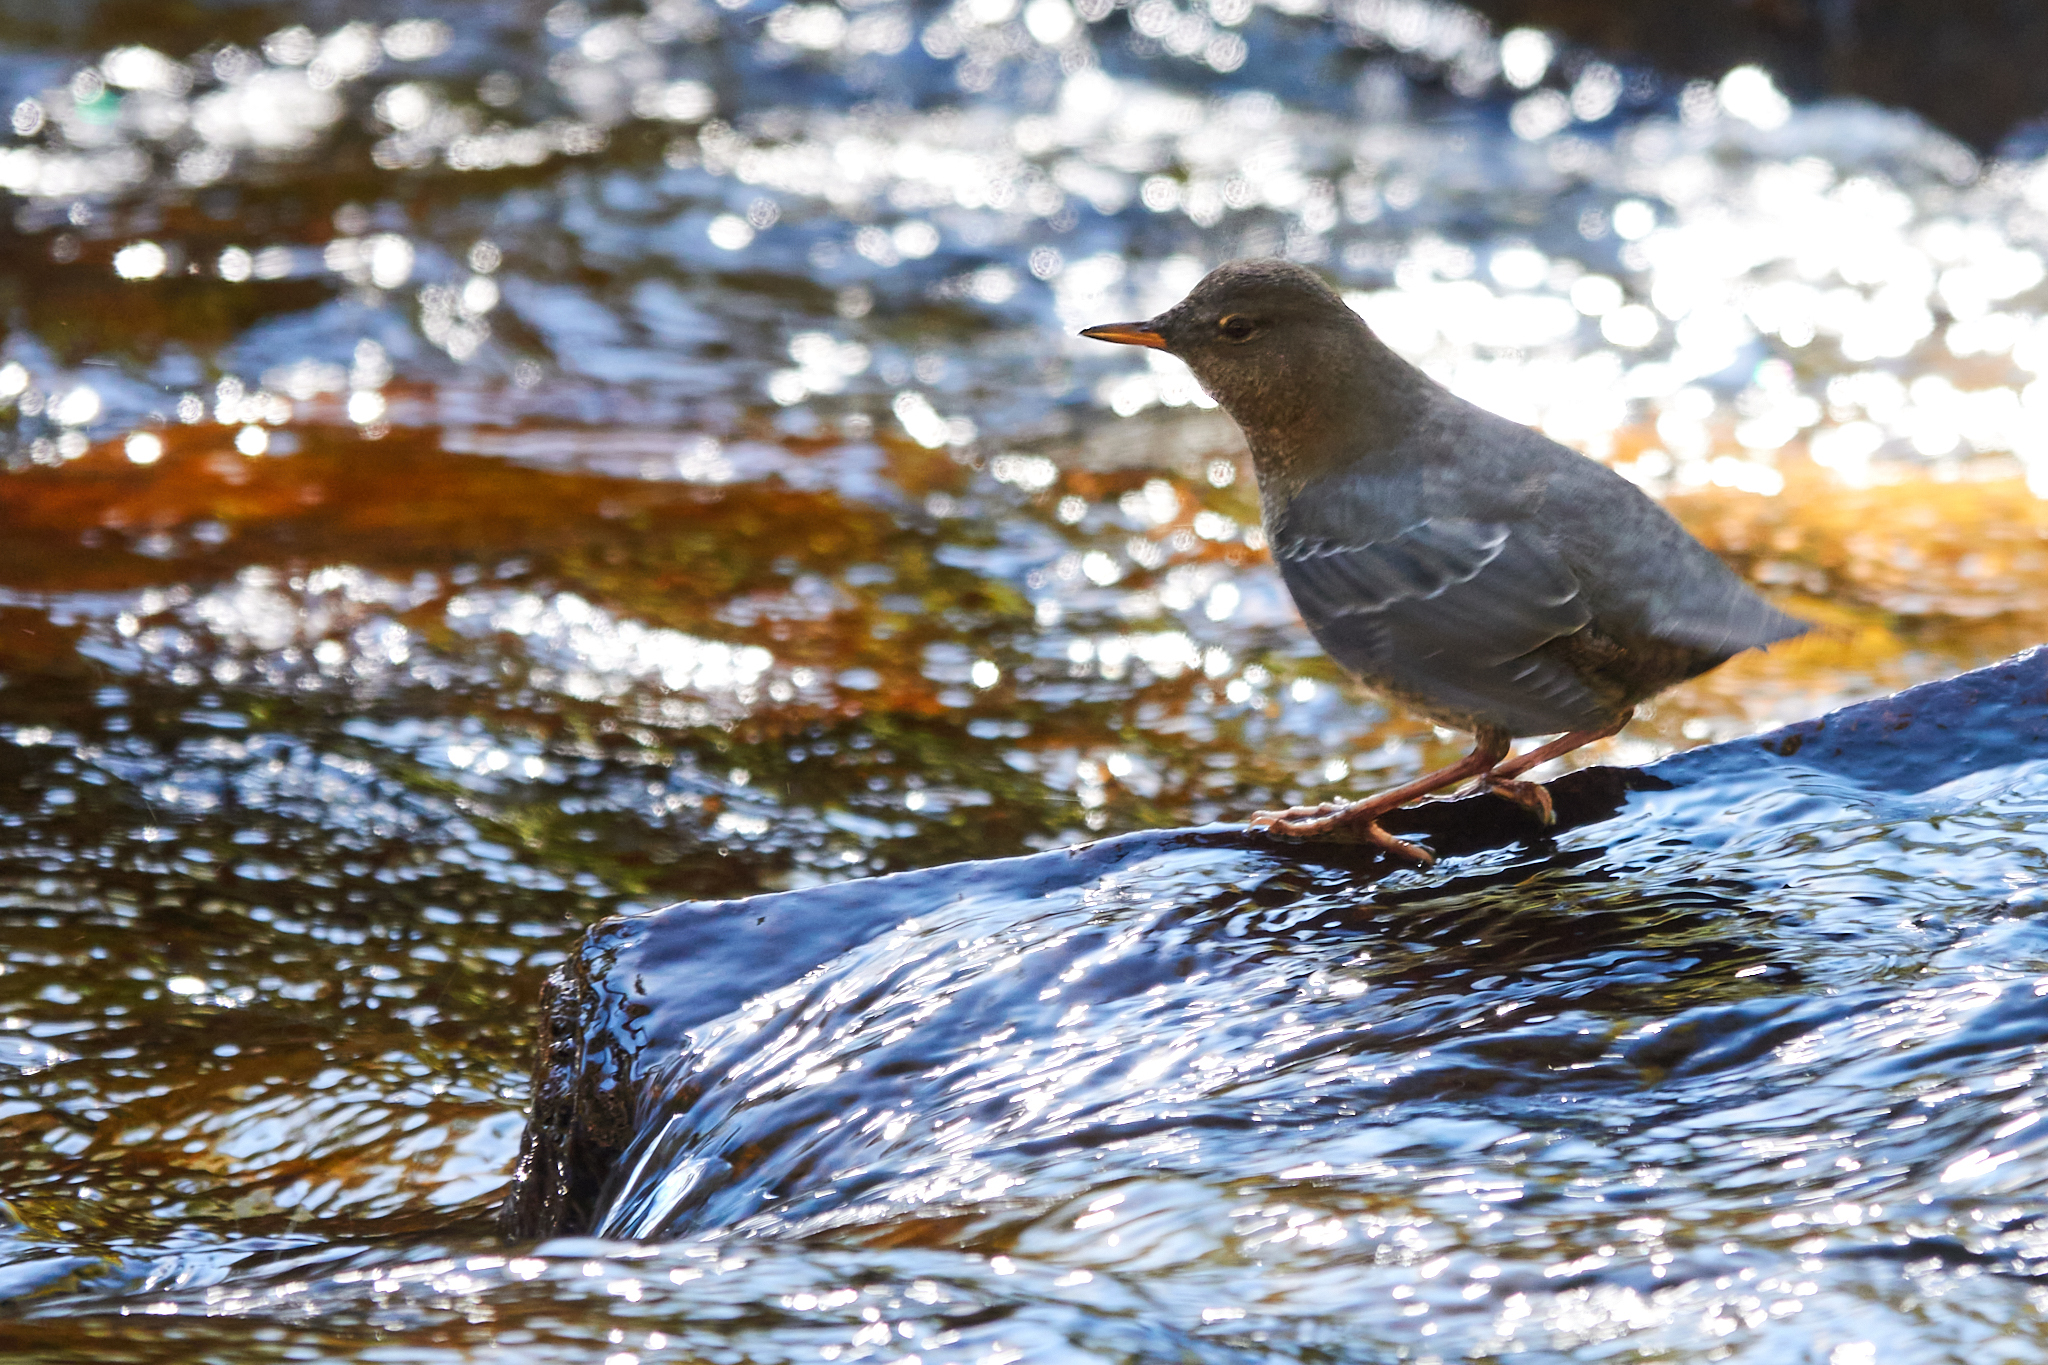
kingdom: Animalia
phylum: Chordata
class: Aves
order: Passeriformes
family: Cinclidae
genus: Cinclus
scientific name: Cinclus mexicanus
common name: American dipper
